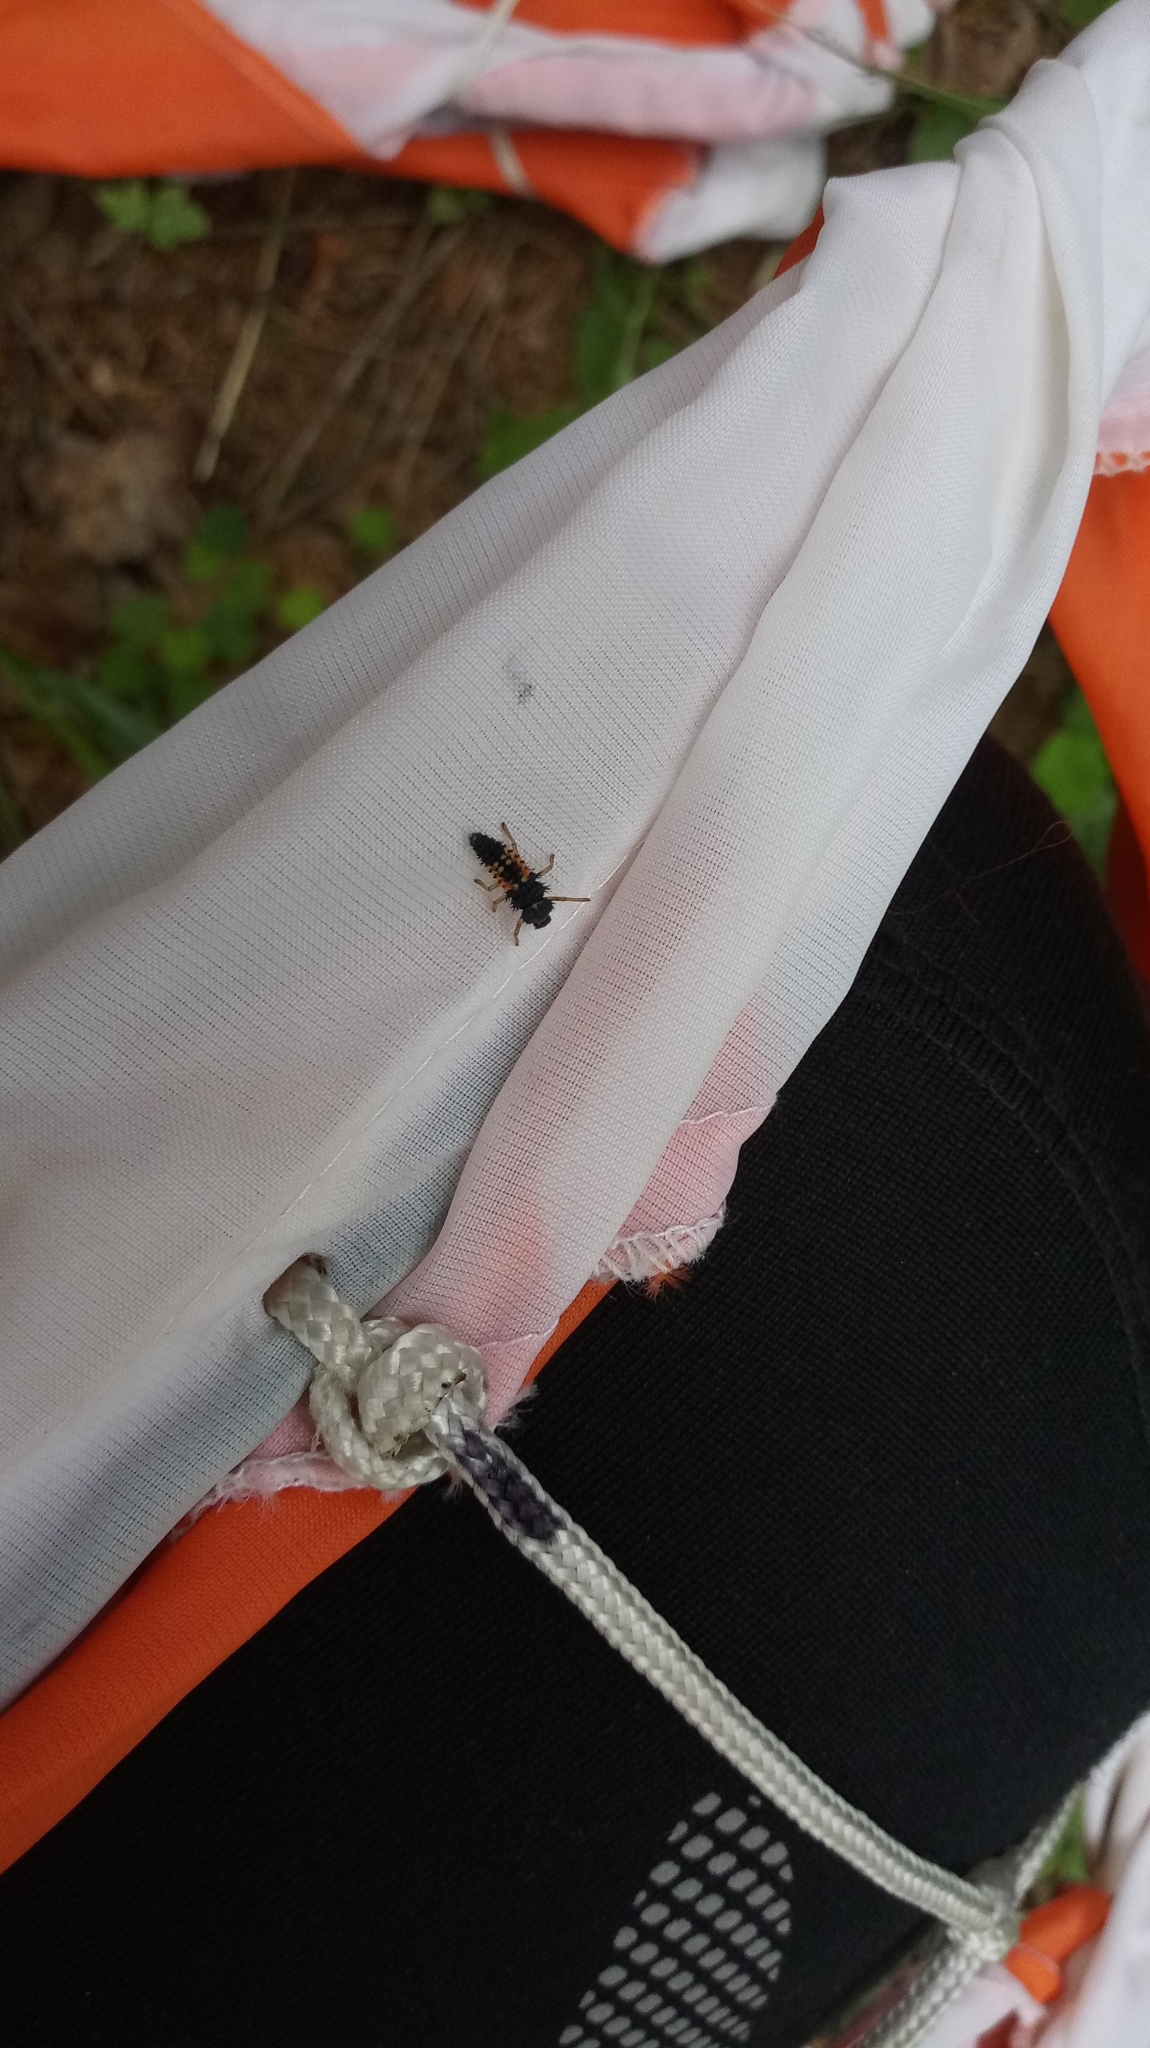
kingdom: Animalia
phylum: Arthropoda
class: Insecta
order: Coleoptera
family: Coccinellidae
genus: Harmonia
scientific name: Harmonia axyridis
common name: Harlequin ladybird
